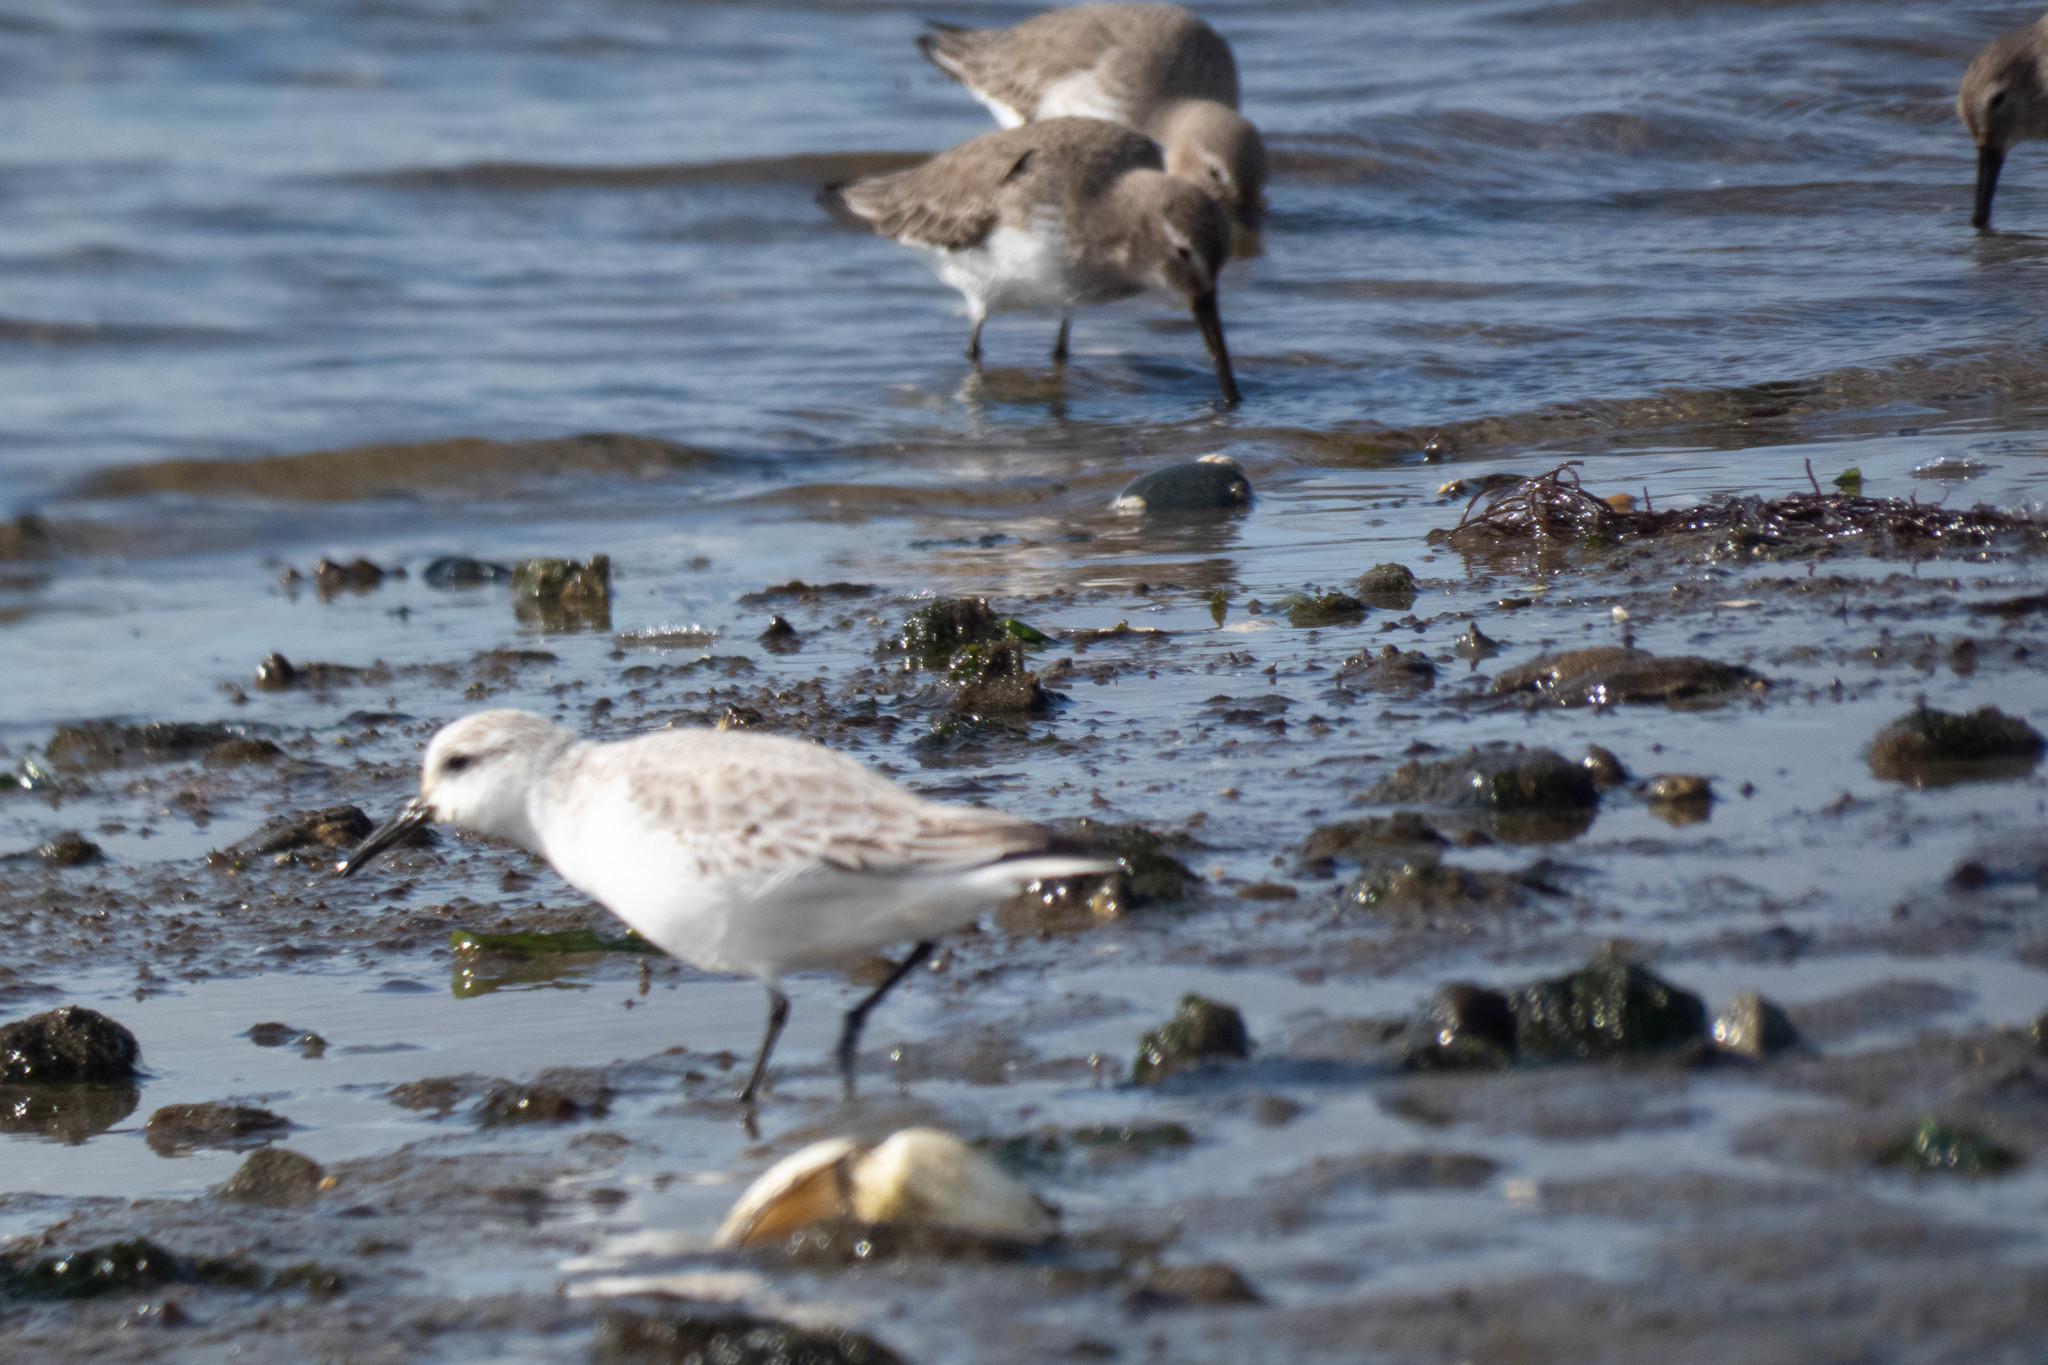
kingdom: Animalia
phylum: Chordata
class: Aves
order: Charadriiformes
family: Scolopacidae
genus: Calidris
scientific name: Calidris alba
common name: Sanderling
